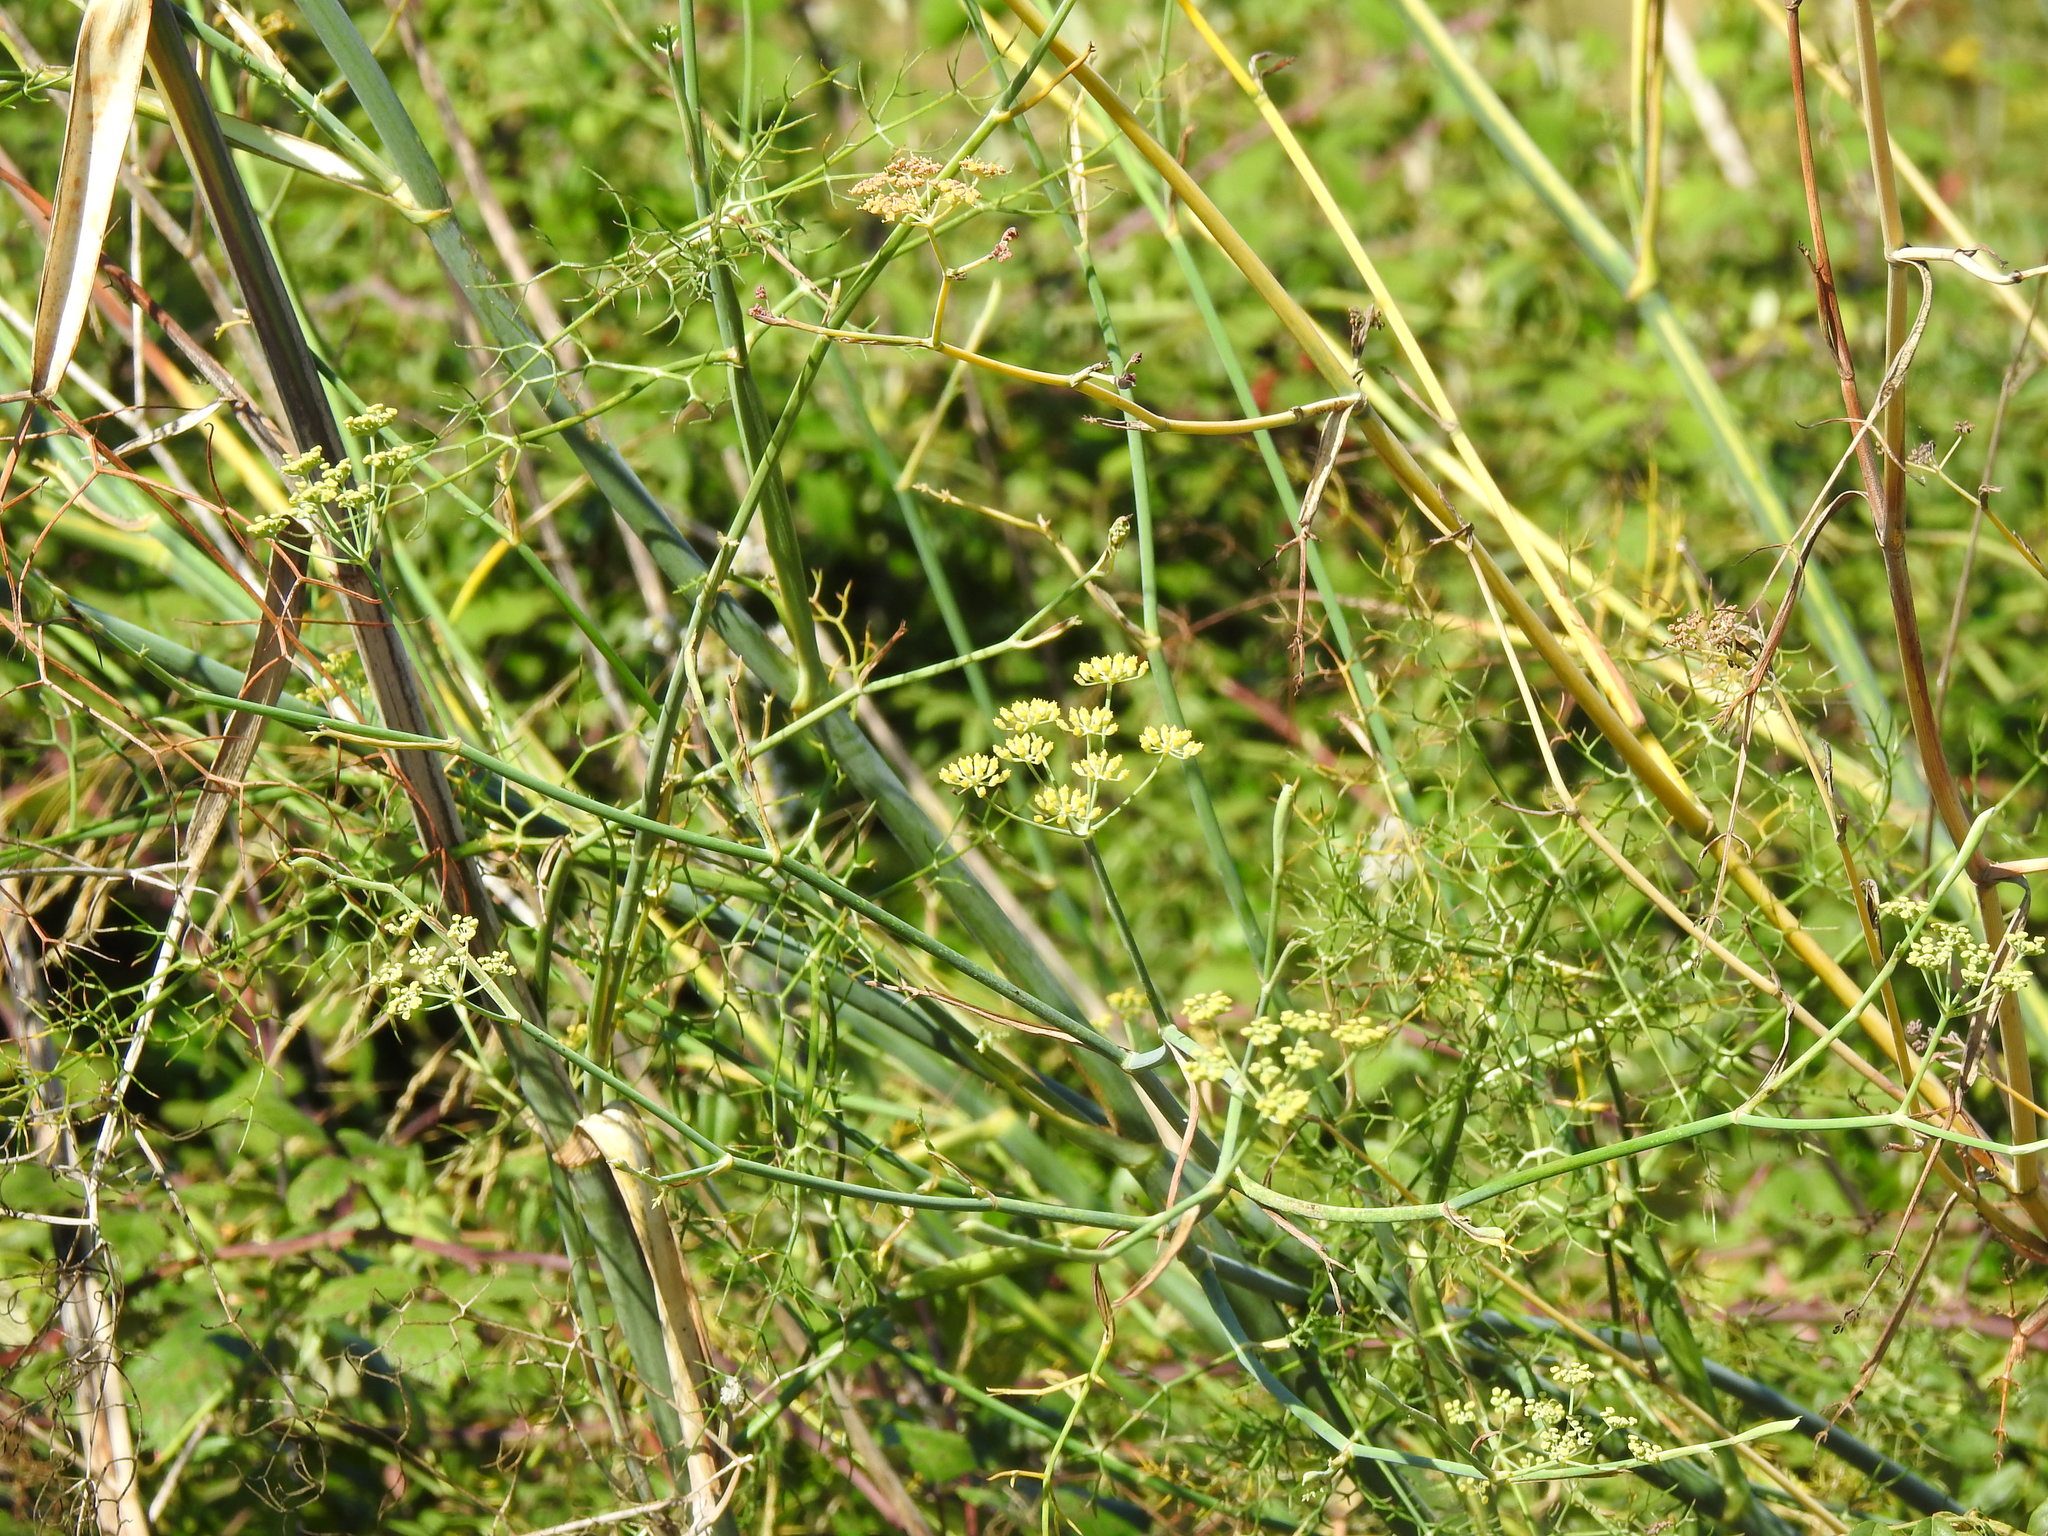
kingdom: Plantae
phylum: Tracheophyta
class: Magnoliopsida
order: Apiales
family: Apiaceae
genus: Foeniculum
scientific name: Foeniculum vulgare
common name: Fennel
